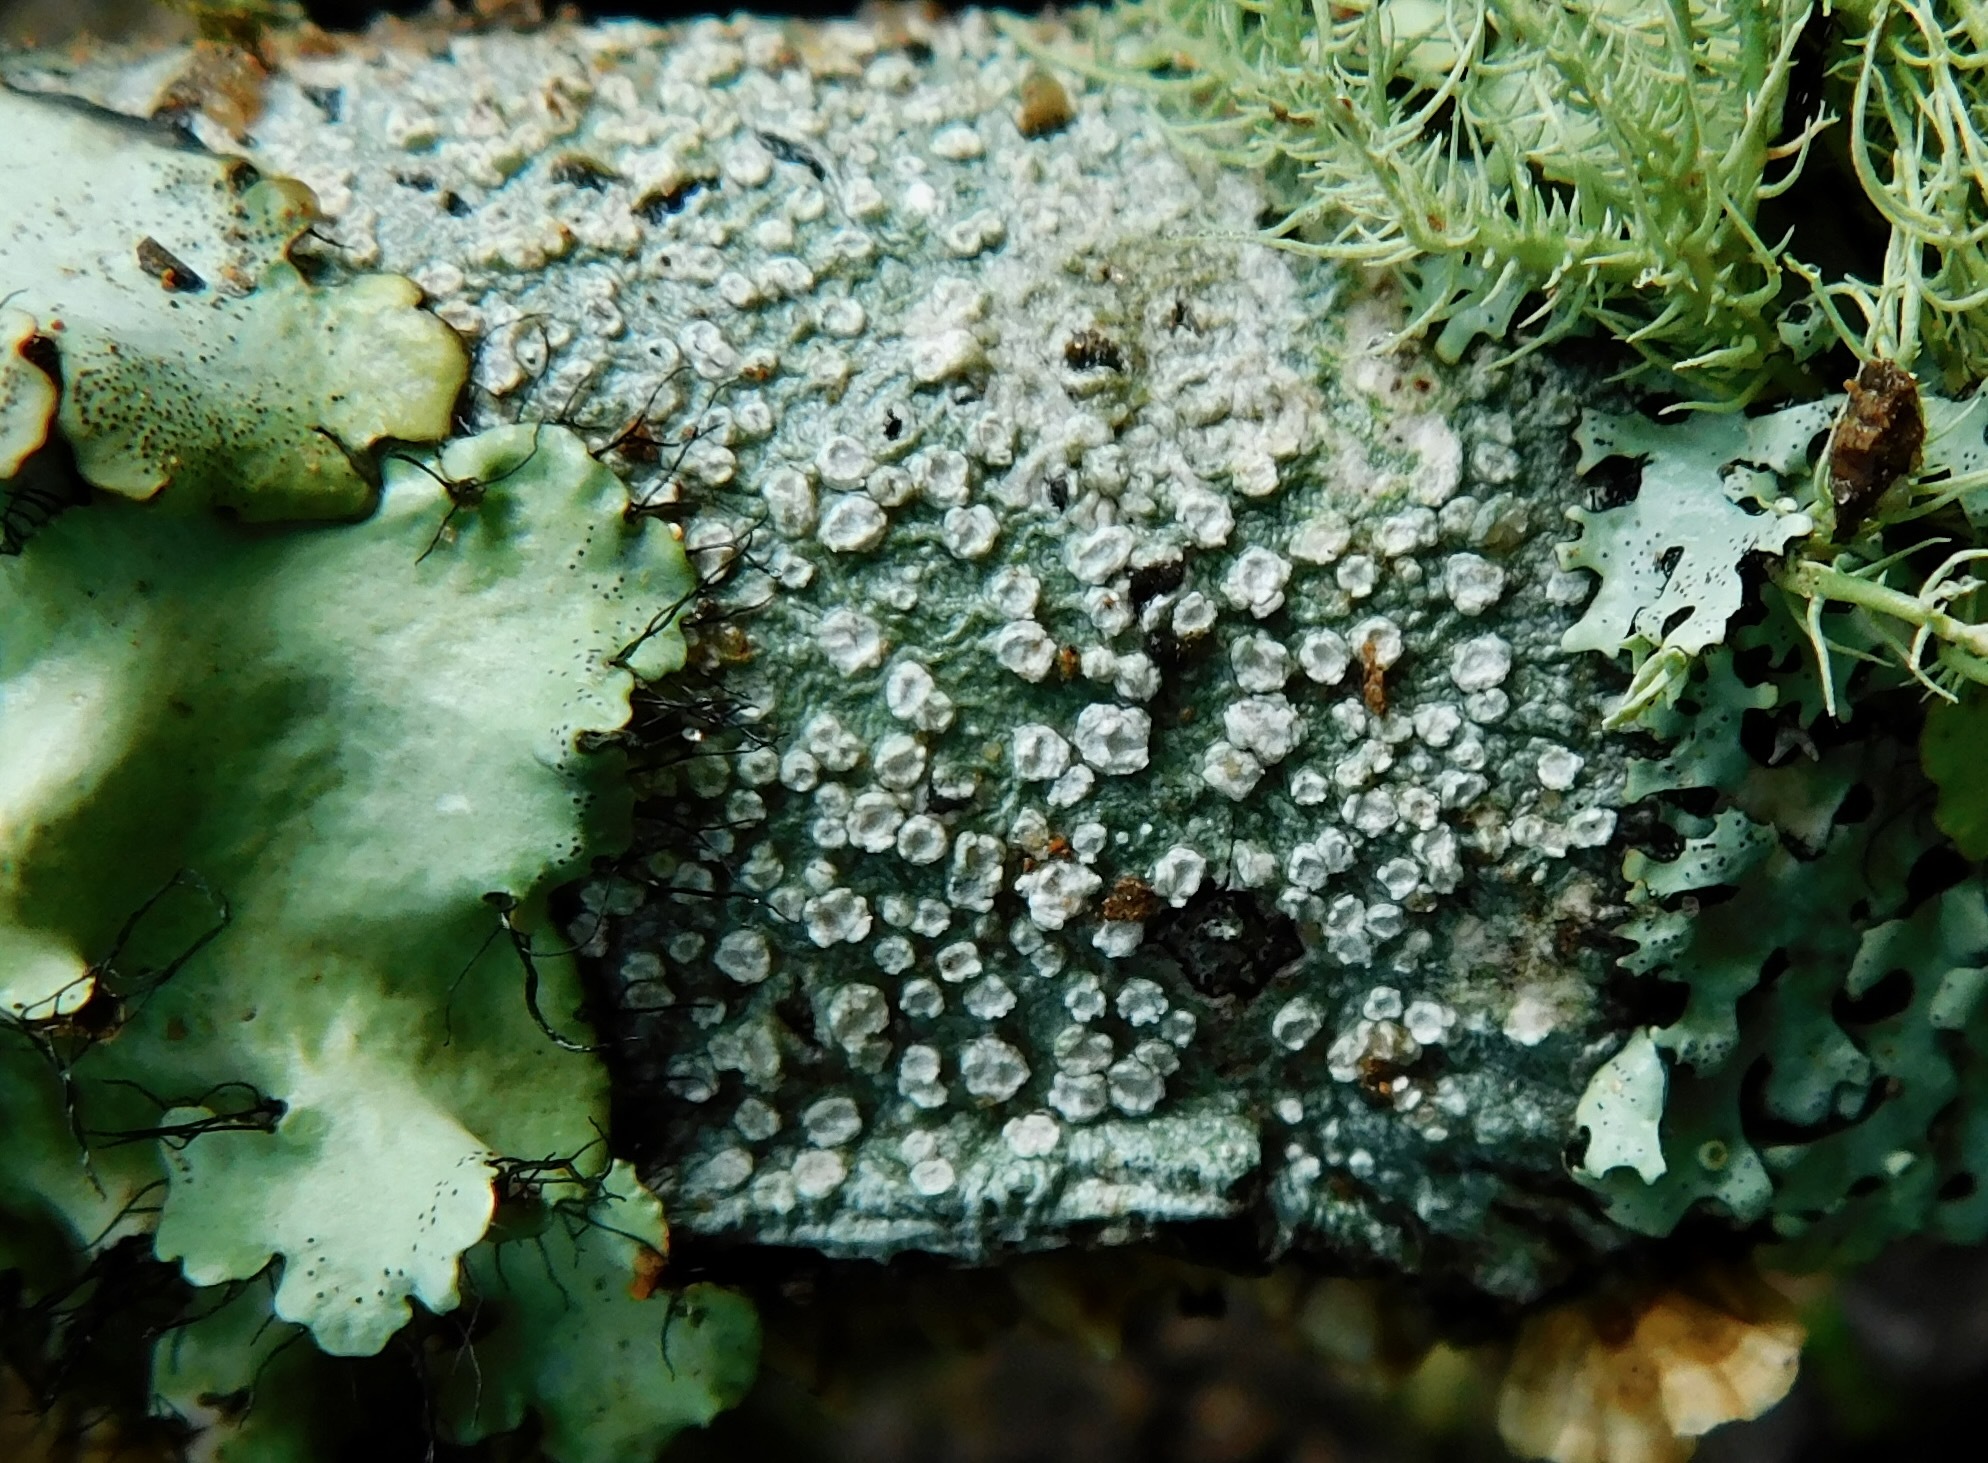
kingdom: Fungi
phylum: Ascomycota
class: Lecanoromycetes
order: Pertusariales
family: Pertusariaceae
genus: Lepra
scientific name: Lepra trachythallina
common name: Powdered wart lichen
